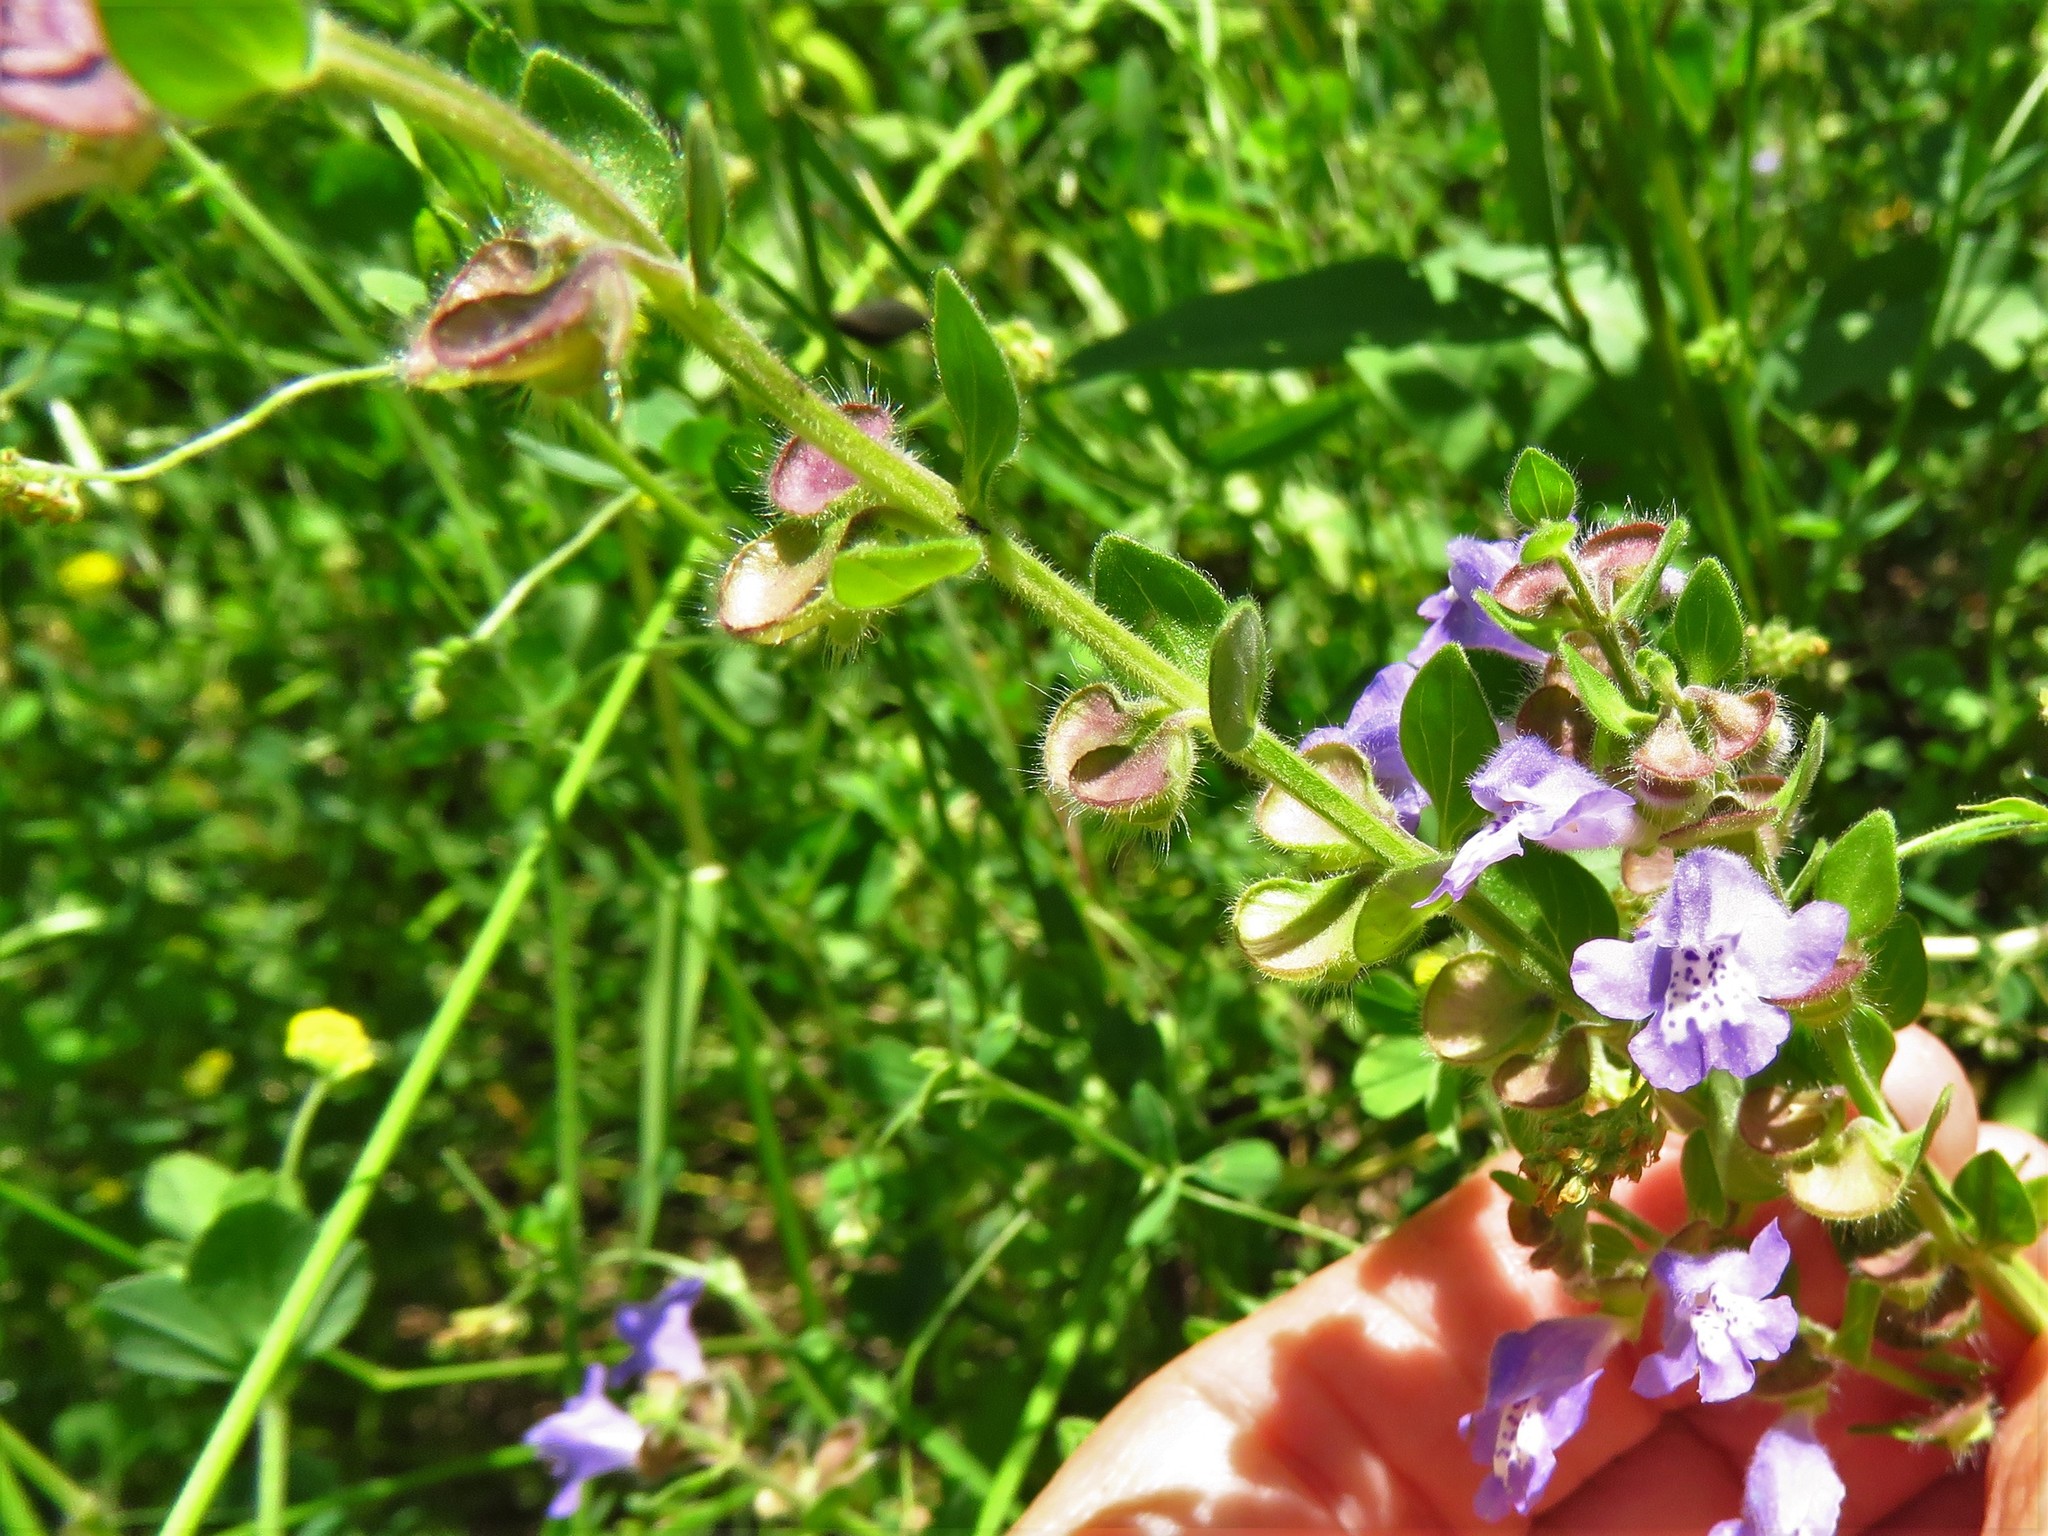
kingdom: Plantae
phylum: Tracheophyta
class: Magnoliopsida
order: Lamiales
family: Lamiaceae
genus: Scutellaria
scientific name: Scutellaria drummondii
